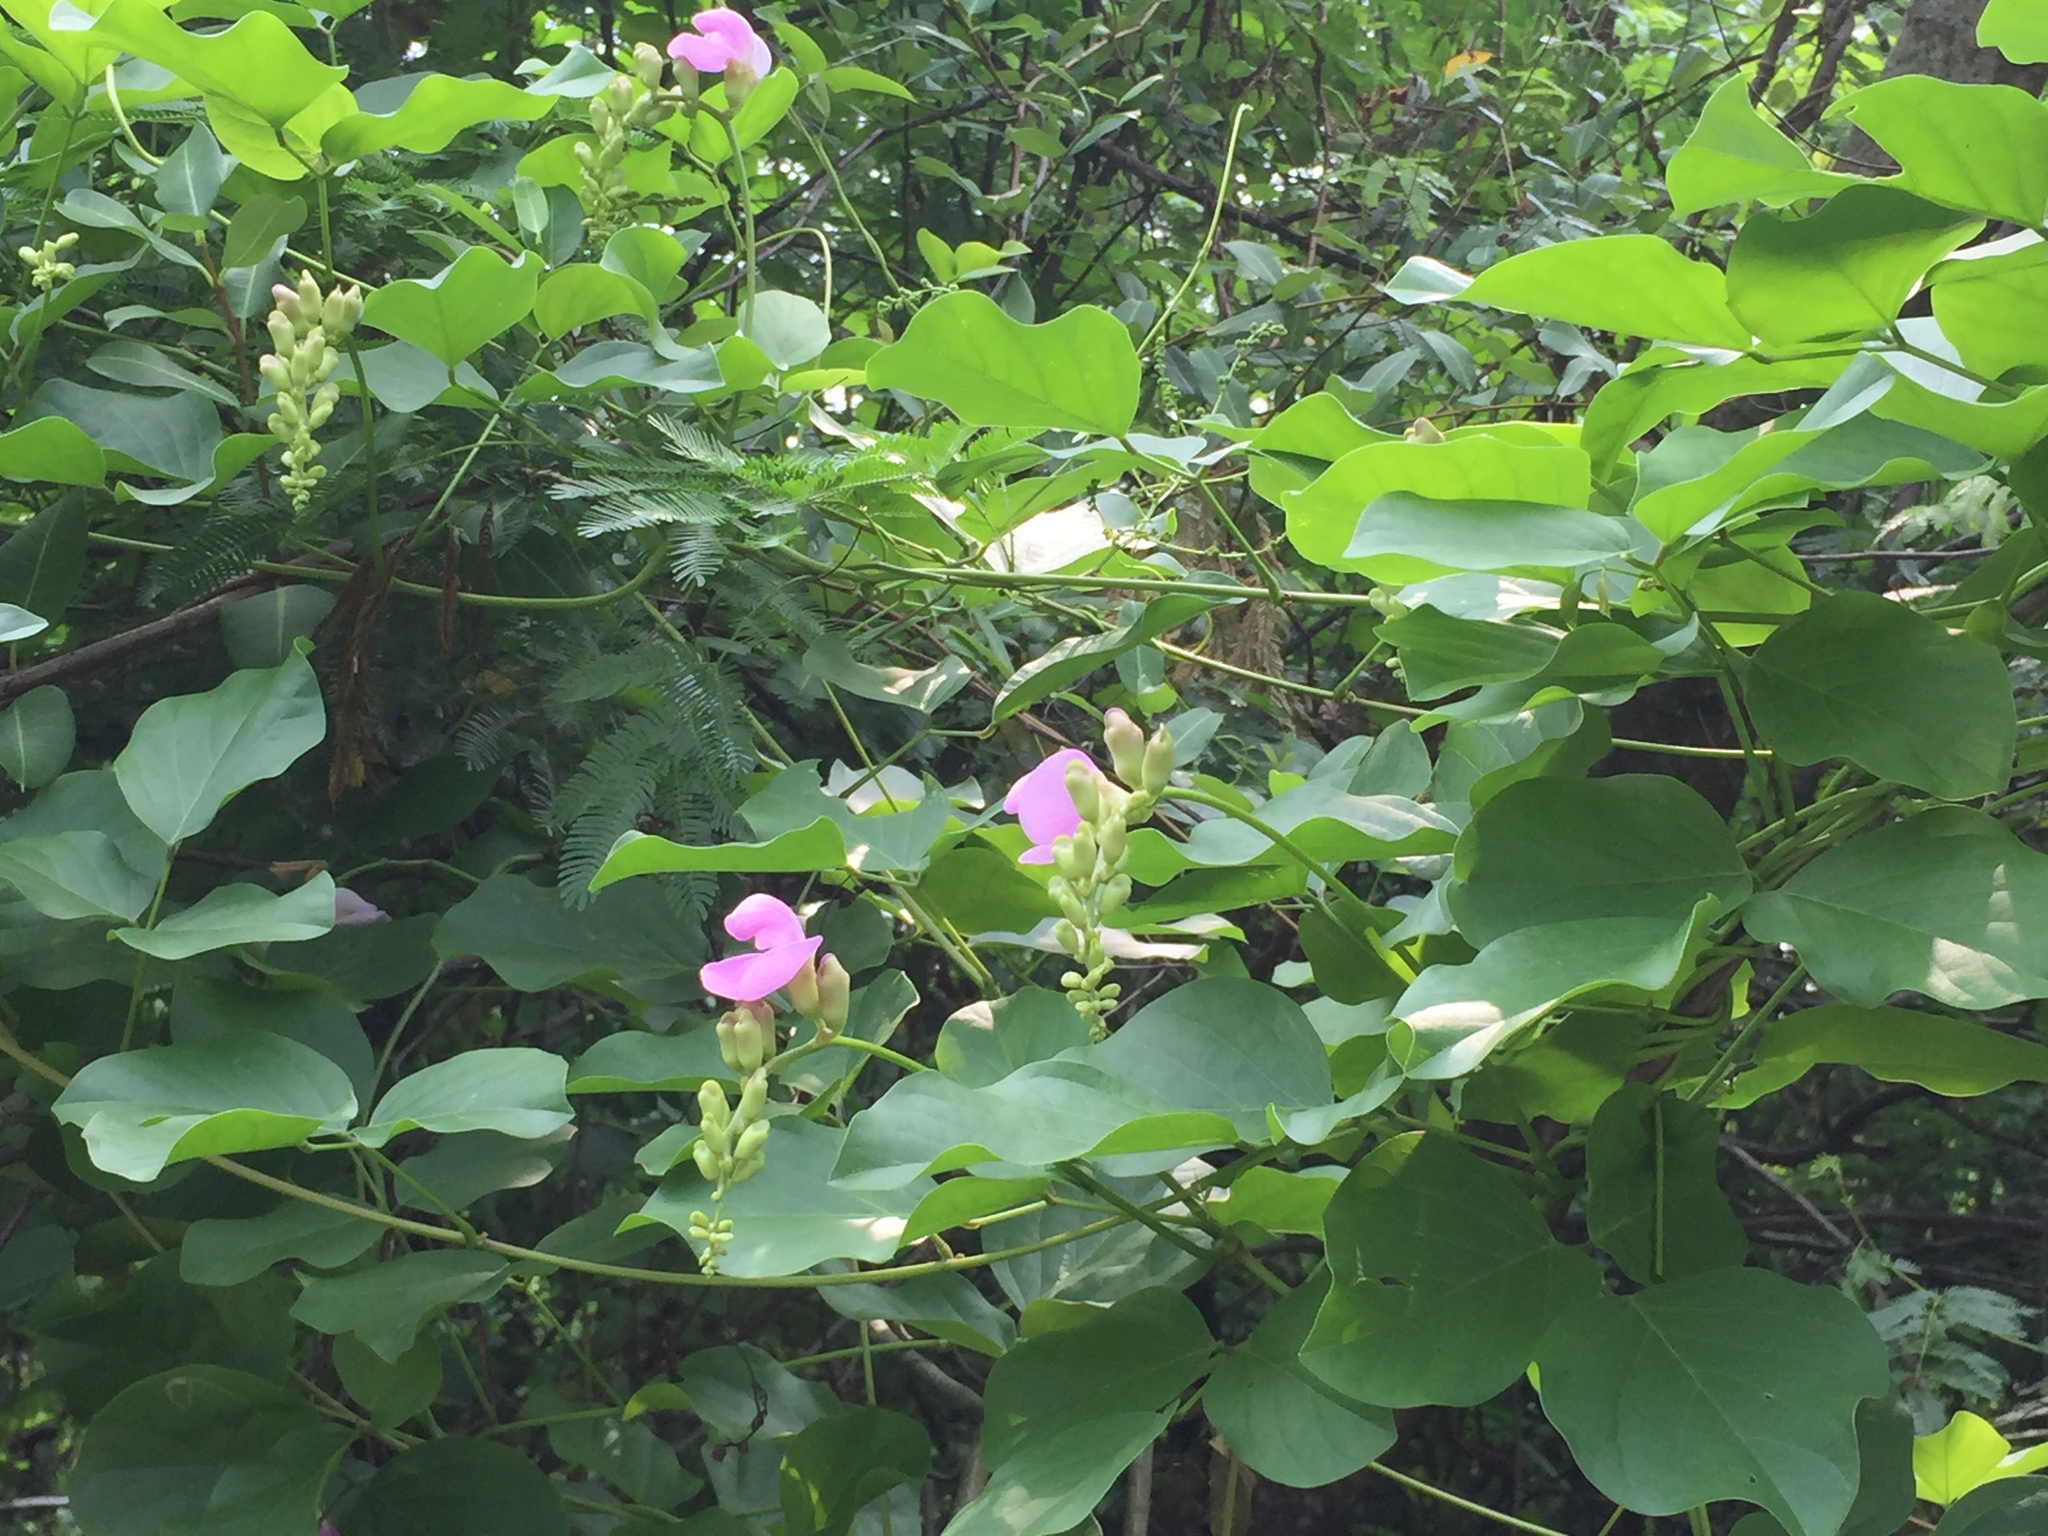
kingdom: Plantae
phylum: Tracheophyta
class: Magnoliopsida
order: Fabales
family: Fabaceae
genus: Canavalia
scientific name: Canavalia rosea
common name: Beach-bean
